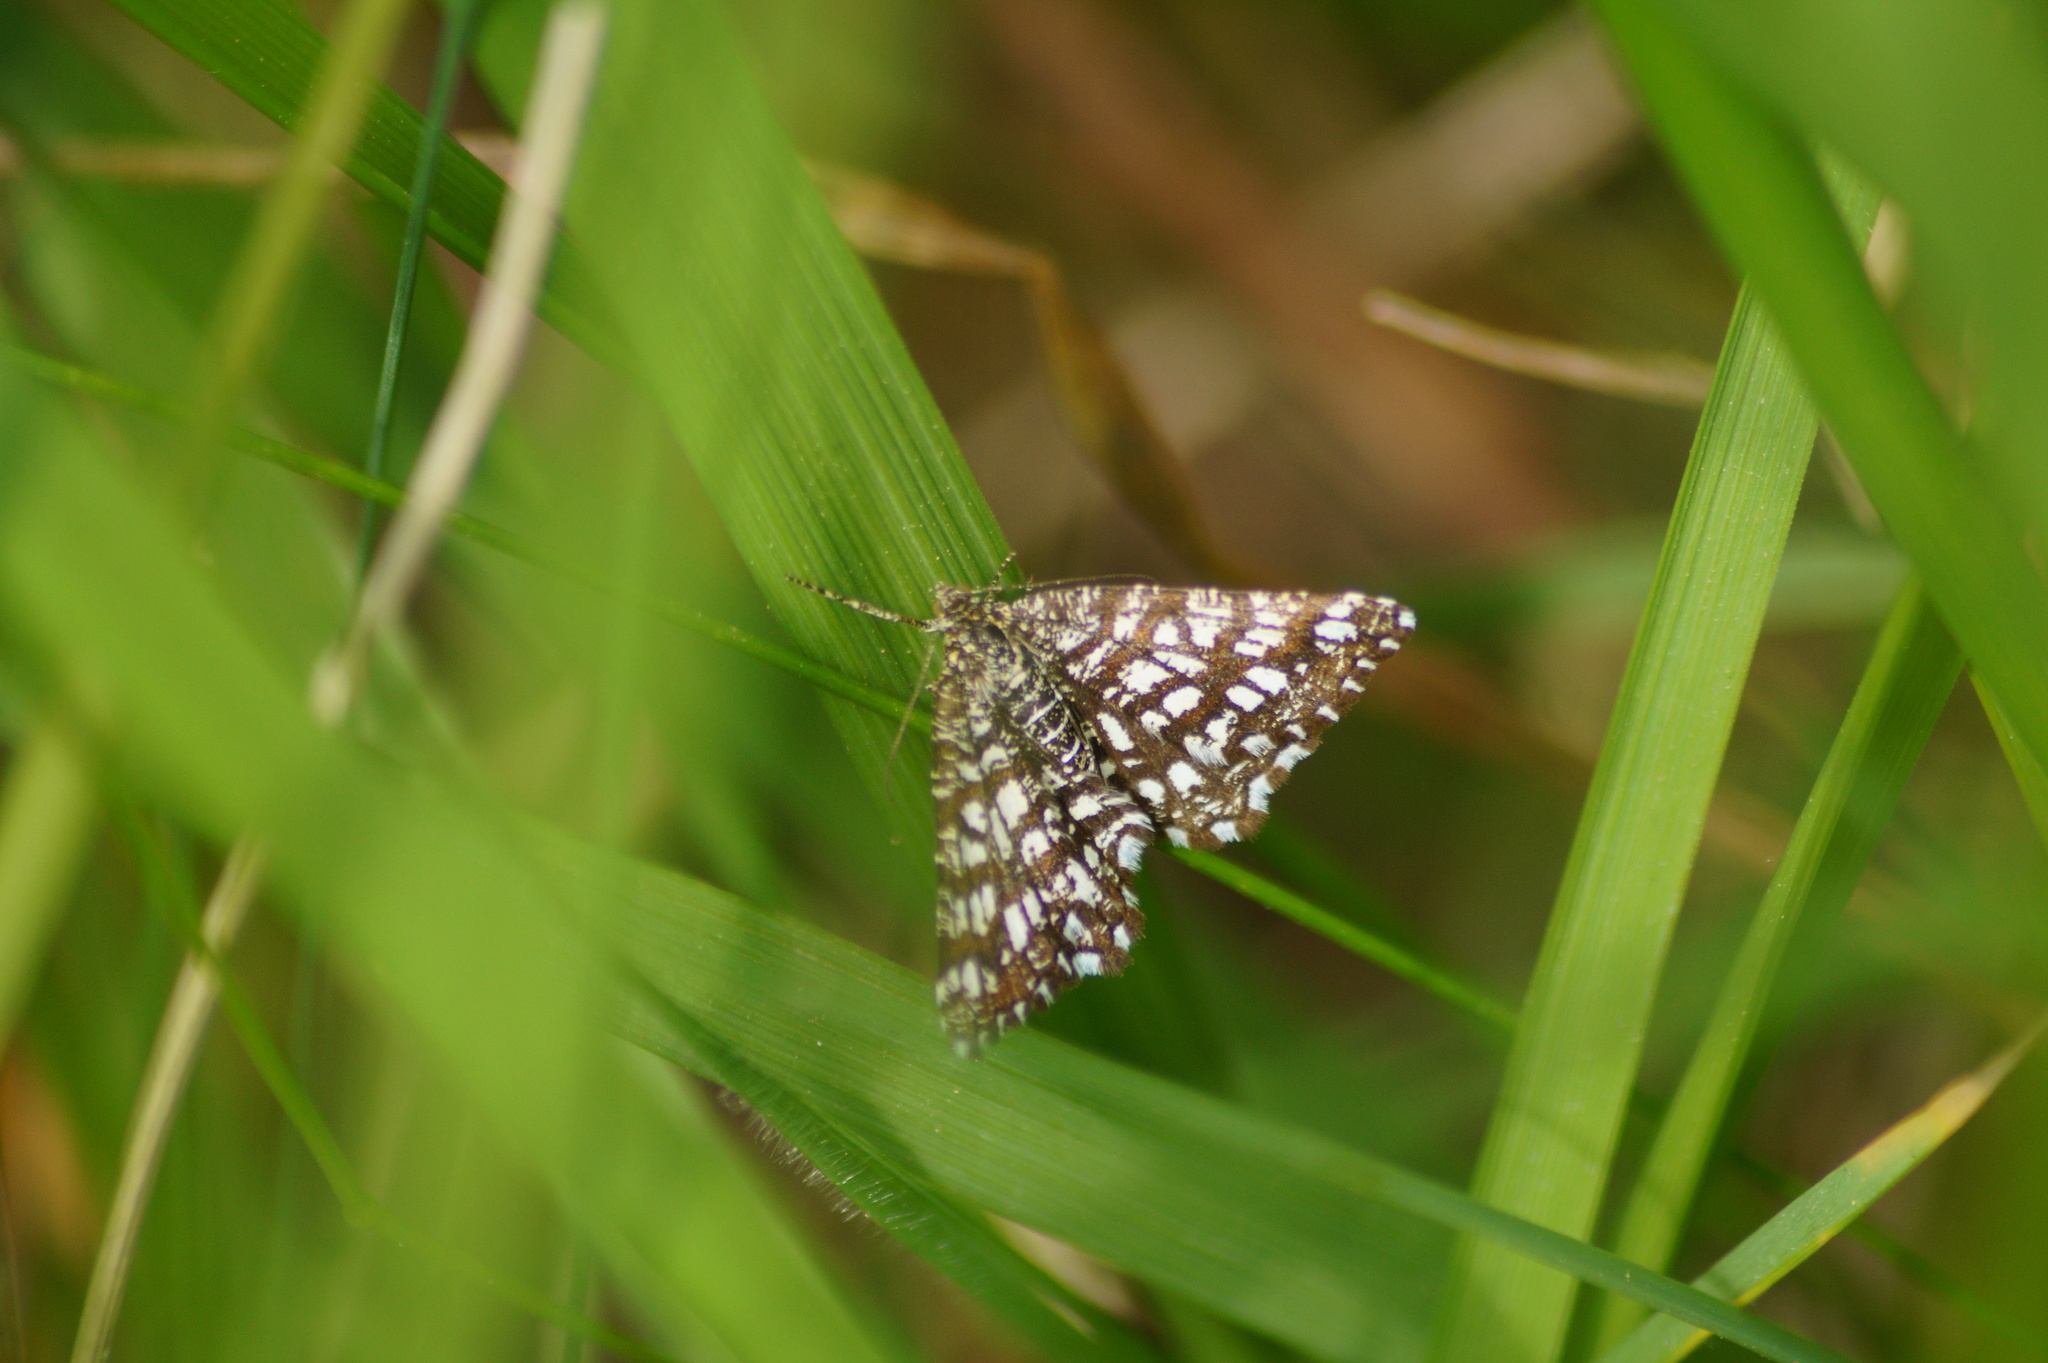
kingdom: Animalia
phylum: Arthropoda
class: Insecta
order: Lepidoptera
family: Geometridae
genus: Chiasmia
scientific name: Chiasmia clathrata
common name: Latticed heath
